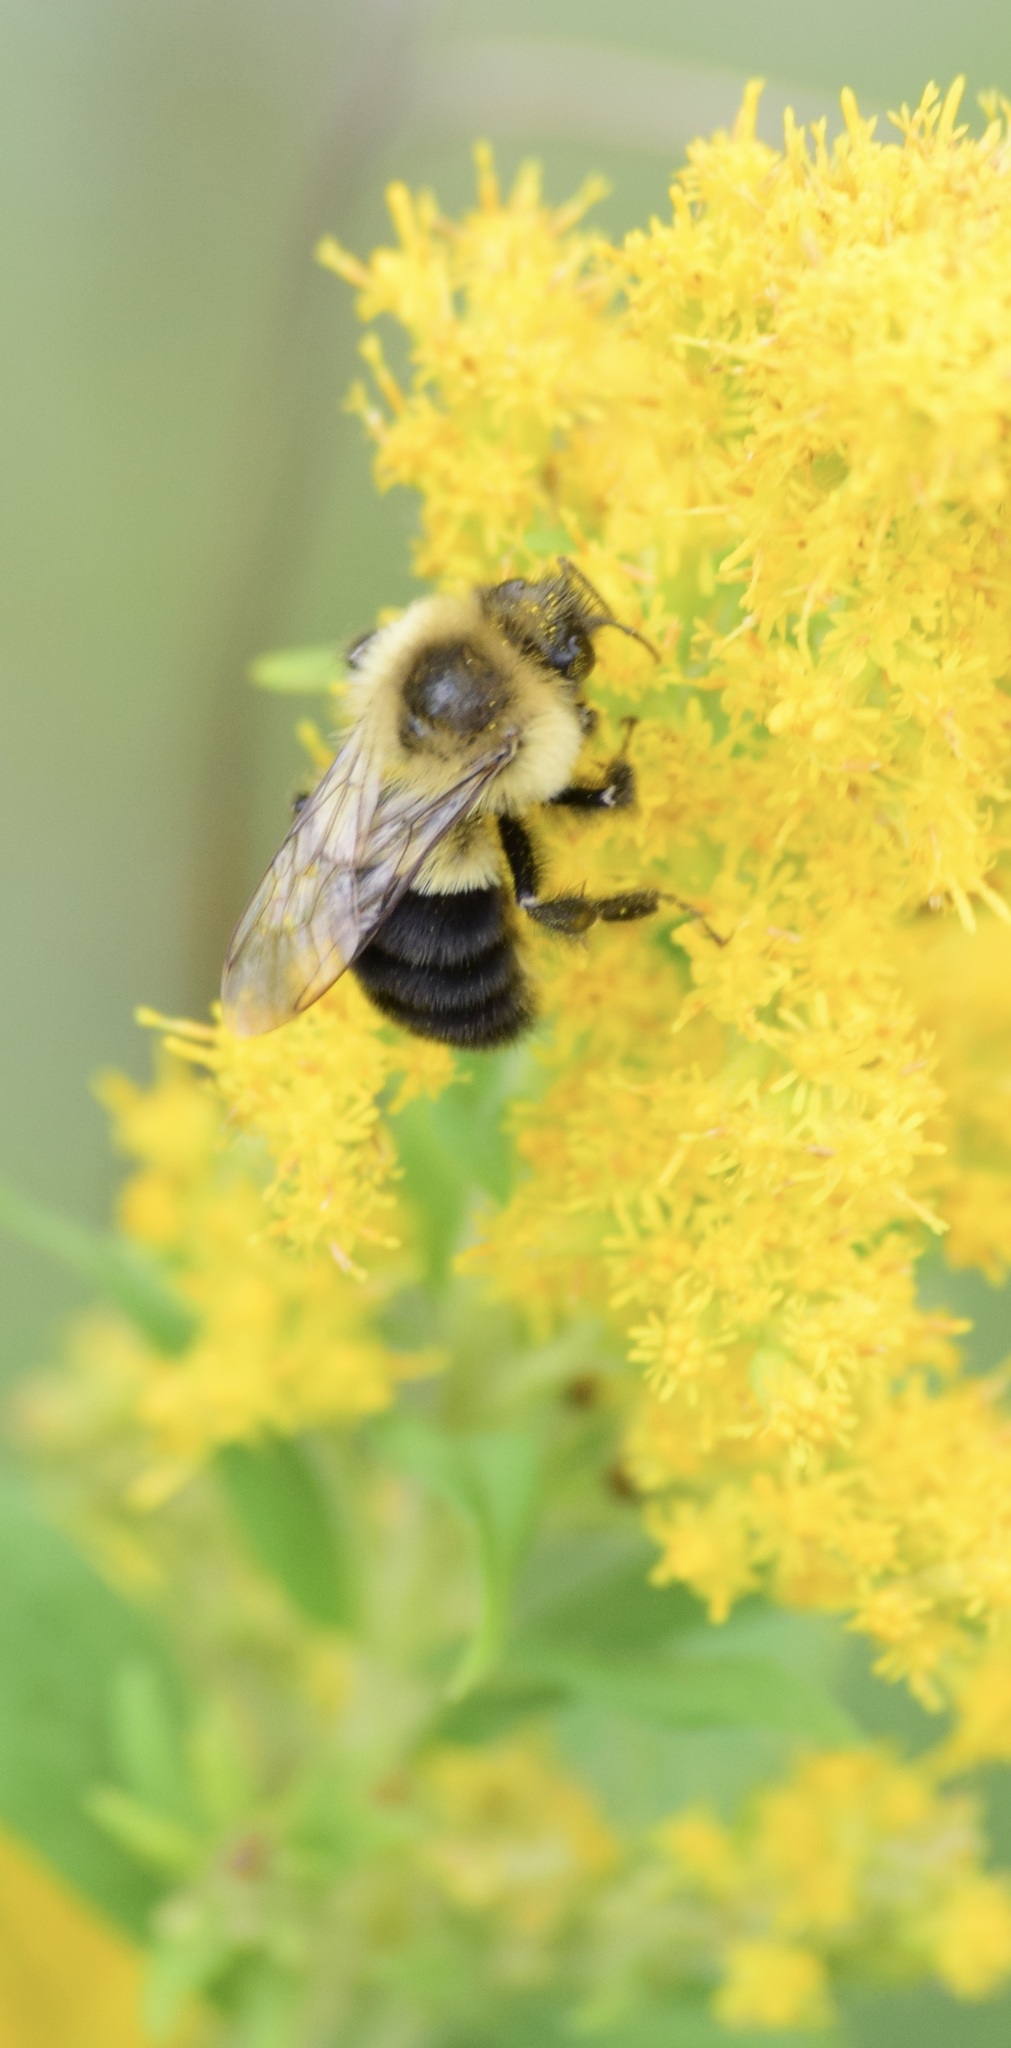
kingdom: Animalia
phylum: Arthropoda
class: Insecta
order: Hymenoptera
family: Apidae
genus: Bombus
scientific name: Bombus impatiens
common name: Common eastern bumble bee
